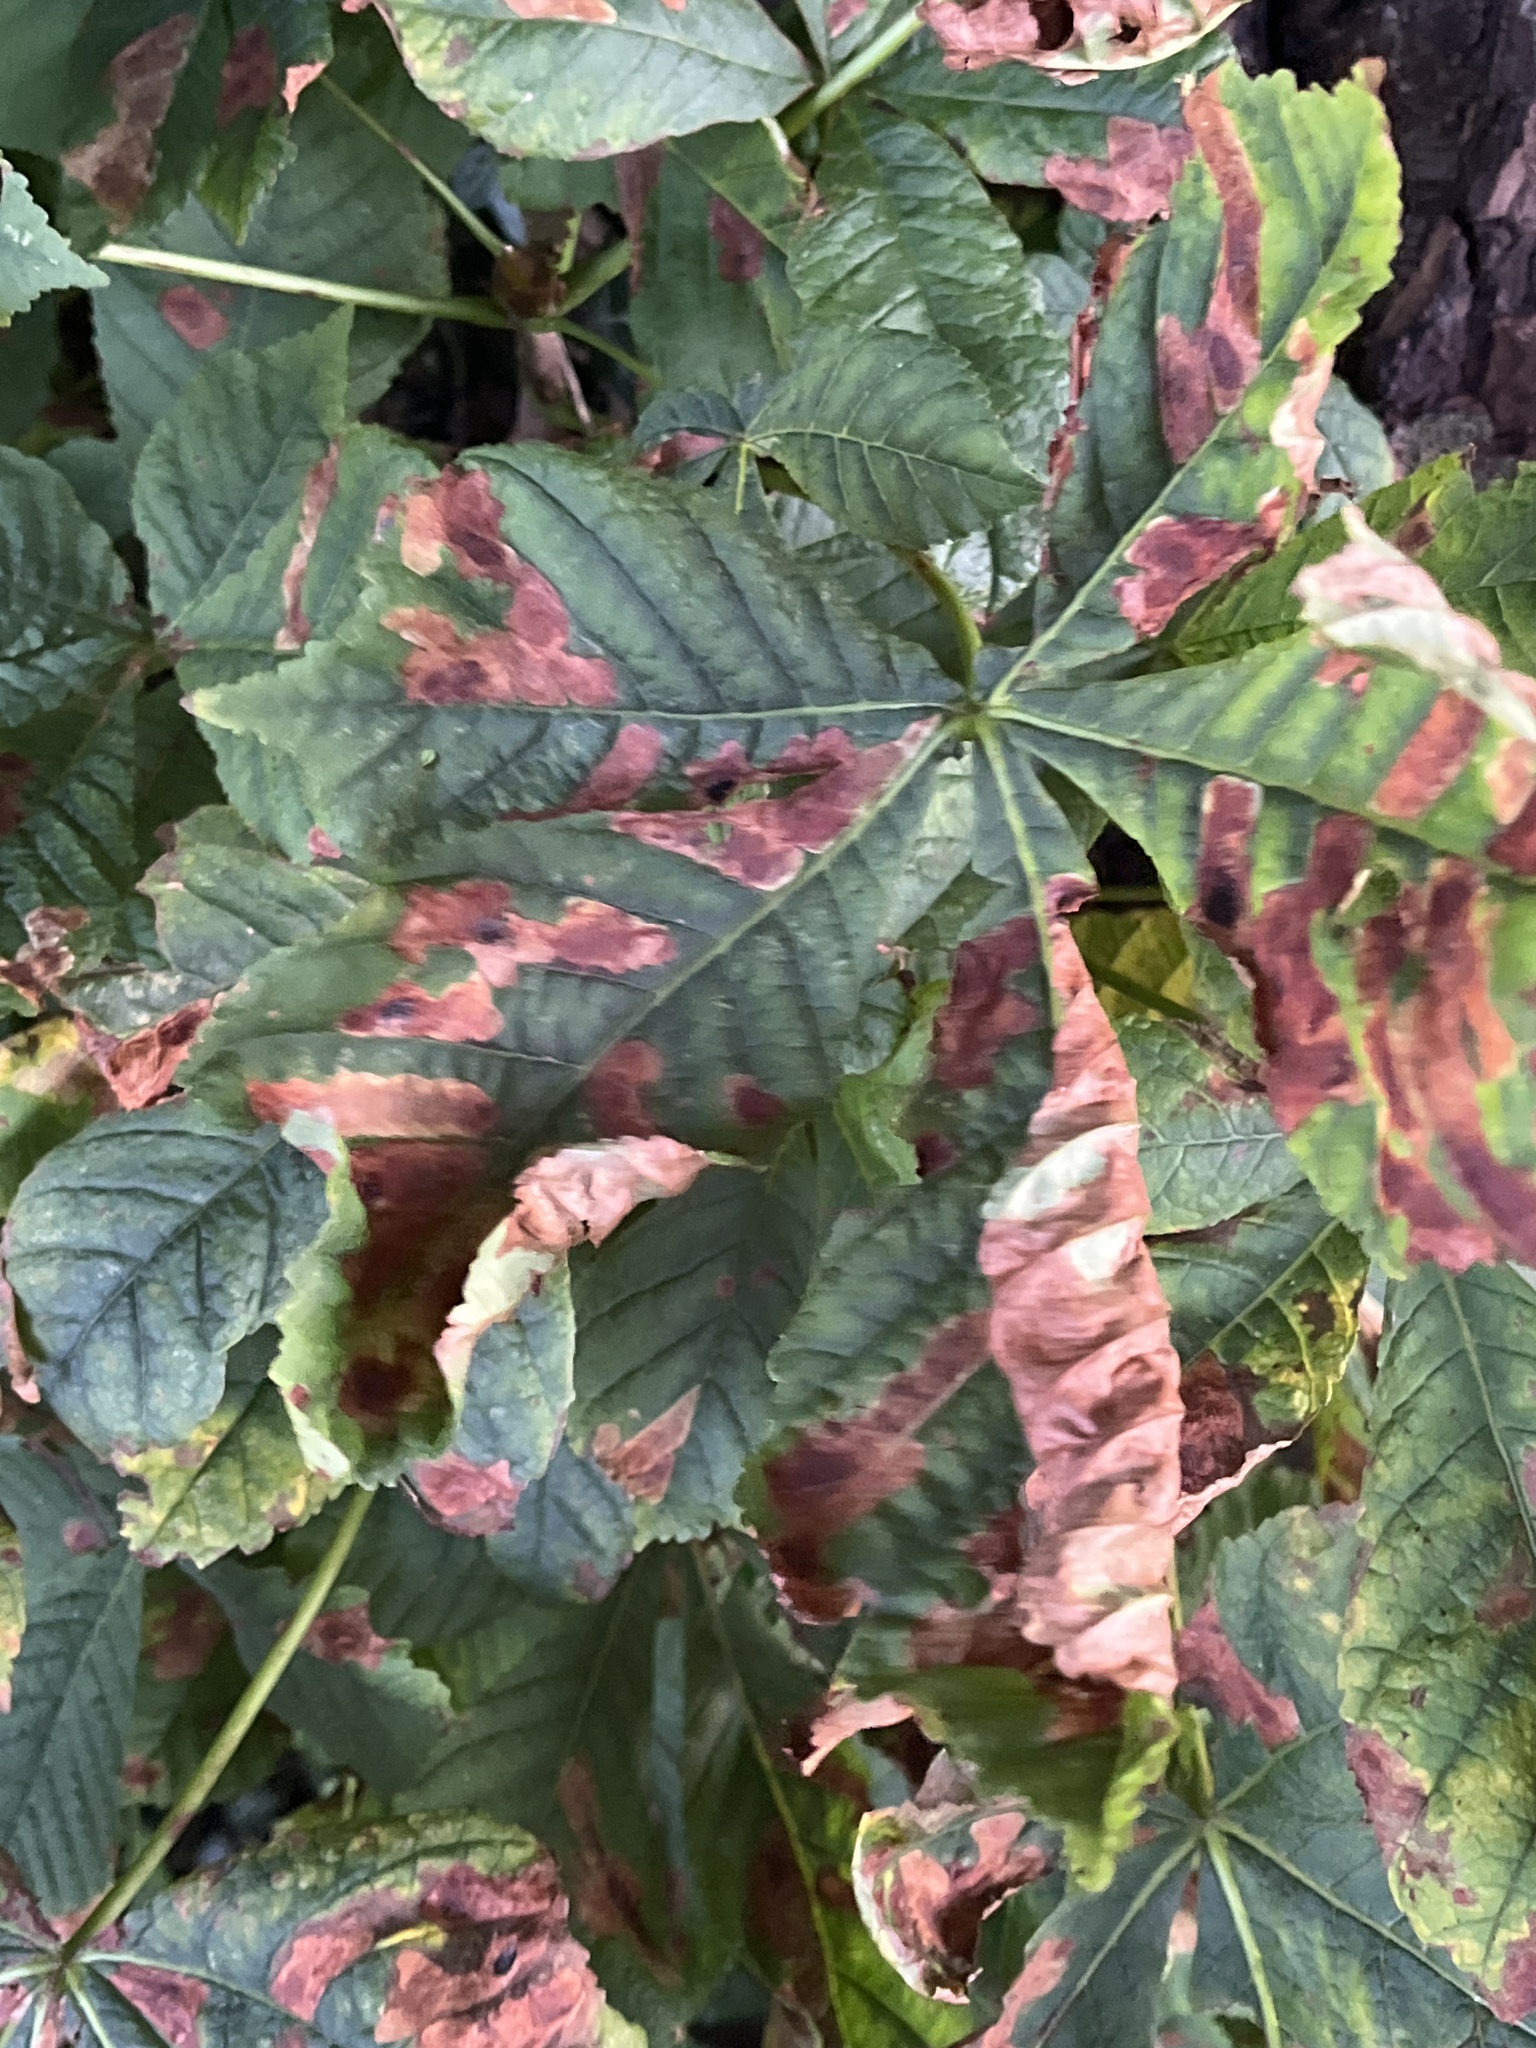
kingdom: Animalia
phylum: Arthropoda
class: Insecta
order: Lepidoptera
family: Gracillariidae
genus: Cameraria
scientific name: Cameraria ohridella
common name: Horse-chestnut leaf-miner
